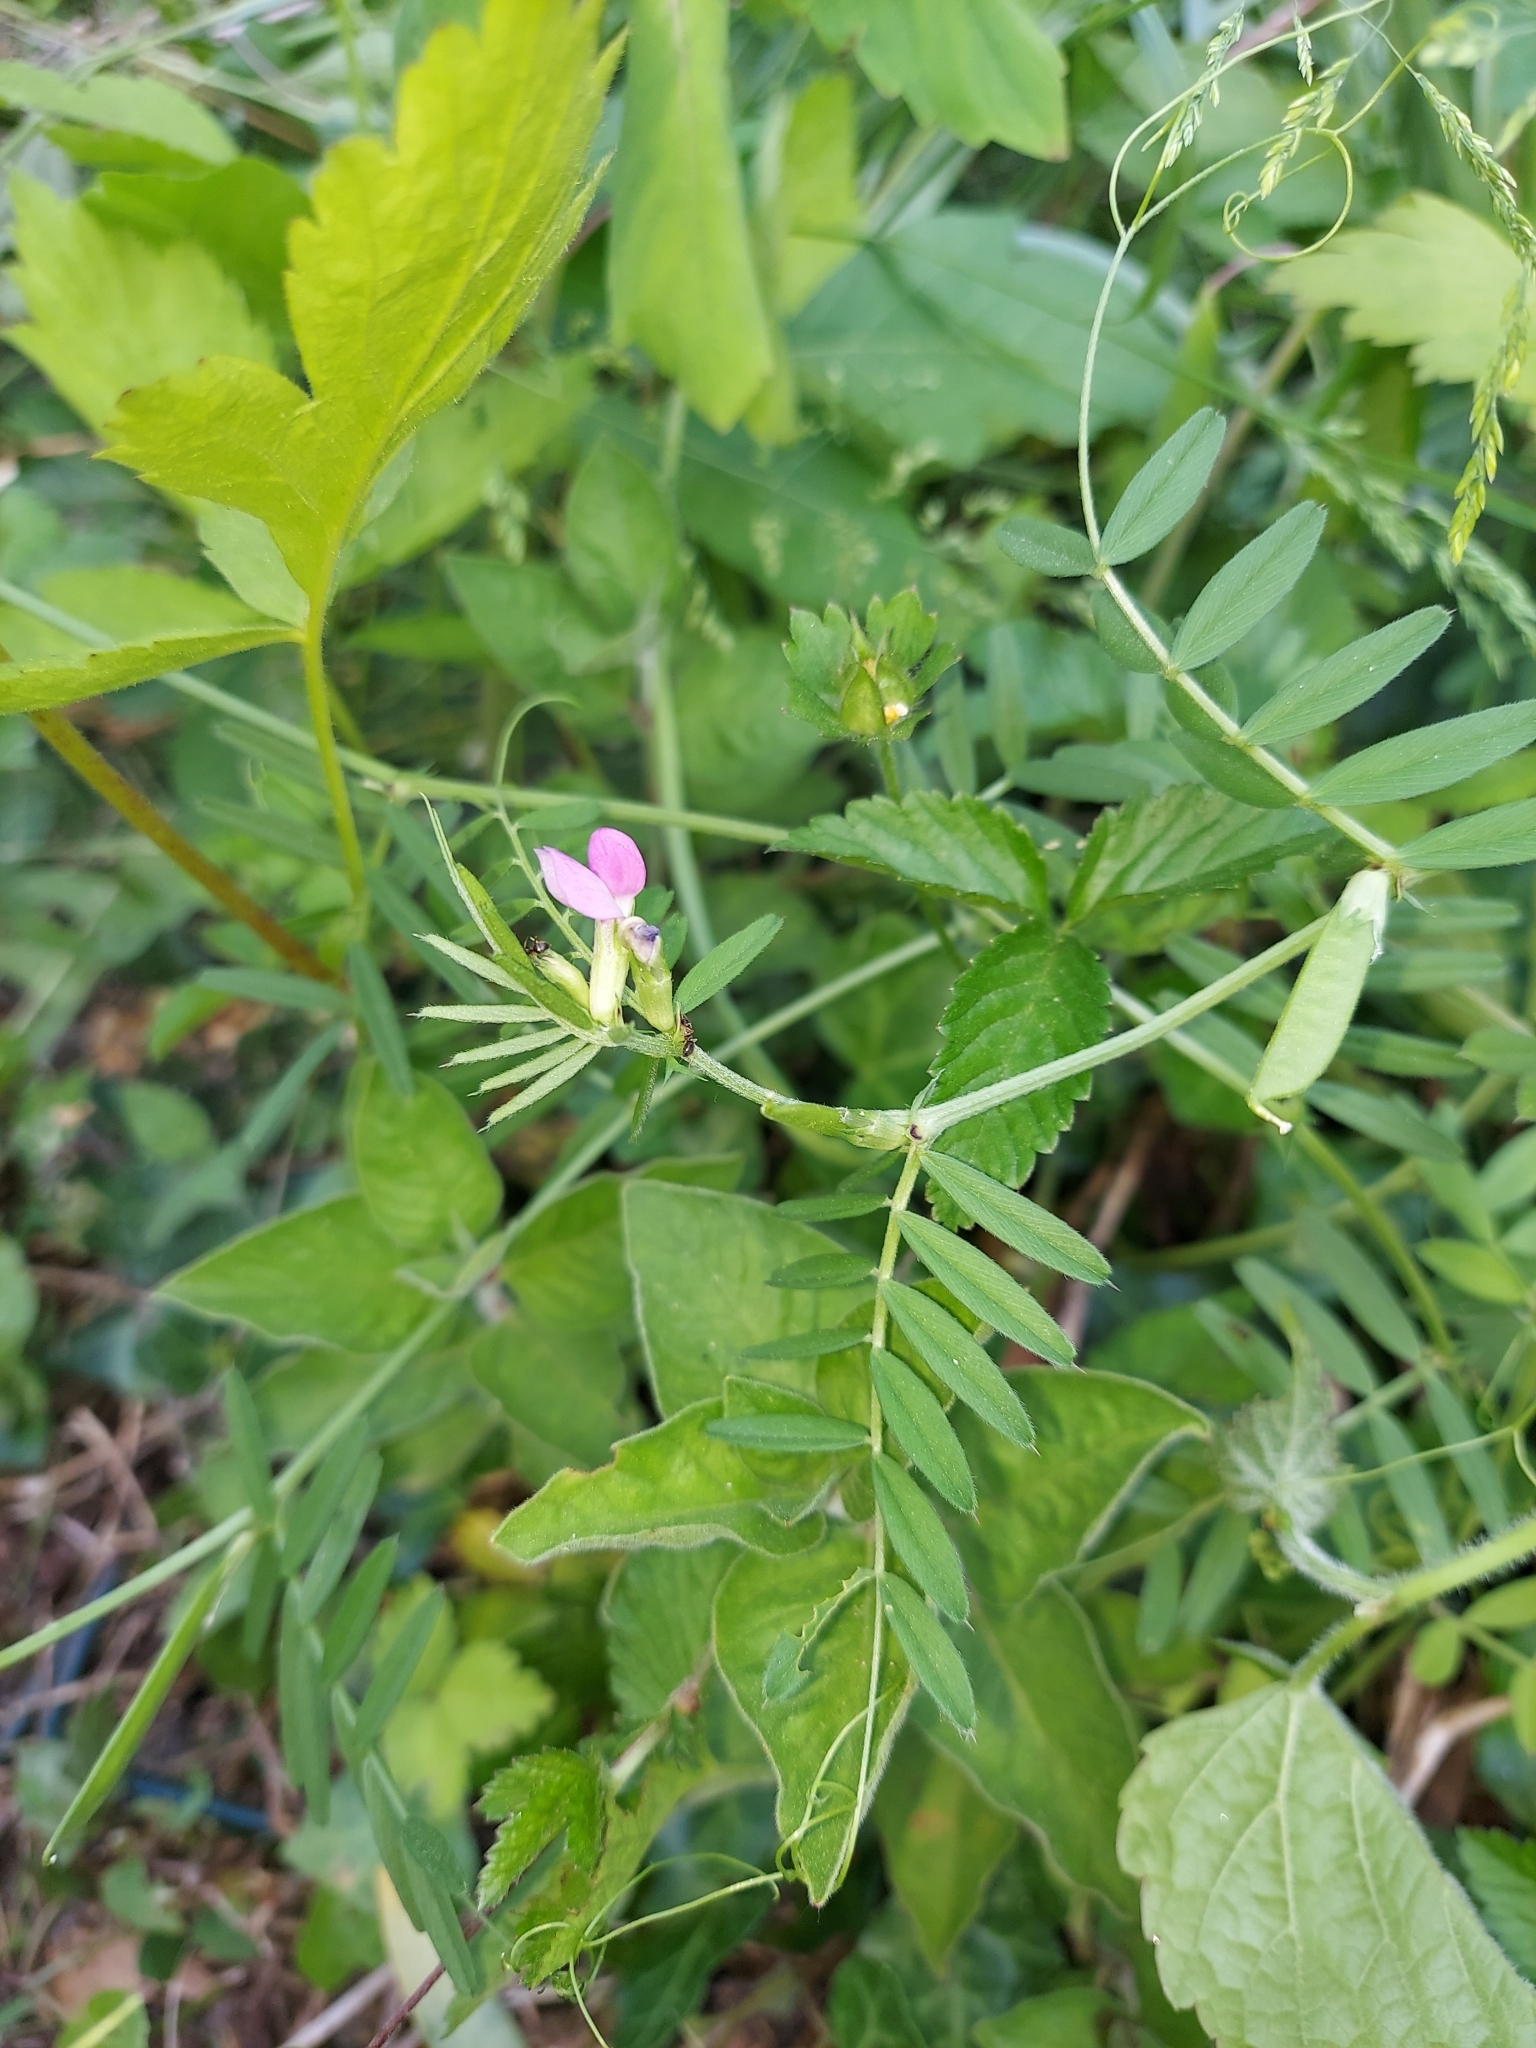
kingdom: Plantae
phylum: Tracheophyta
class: Magnoliopsida
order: Fabales
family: Fabaceae
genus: Vicia
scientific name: Vicia sativa
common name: Garden vetch
